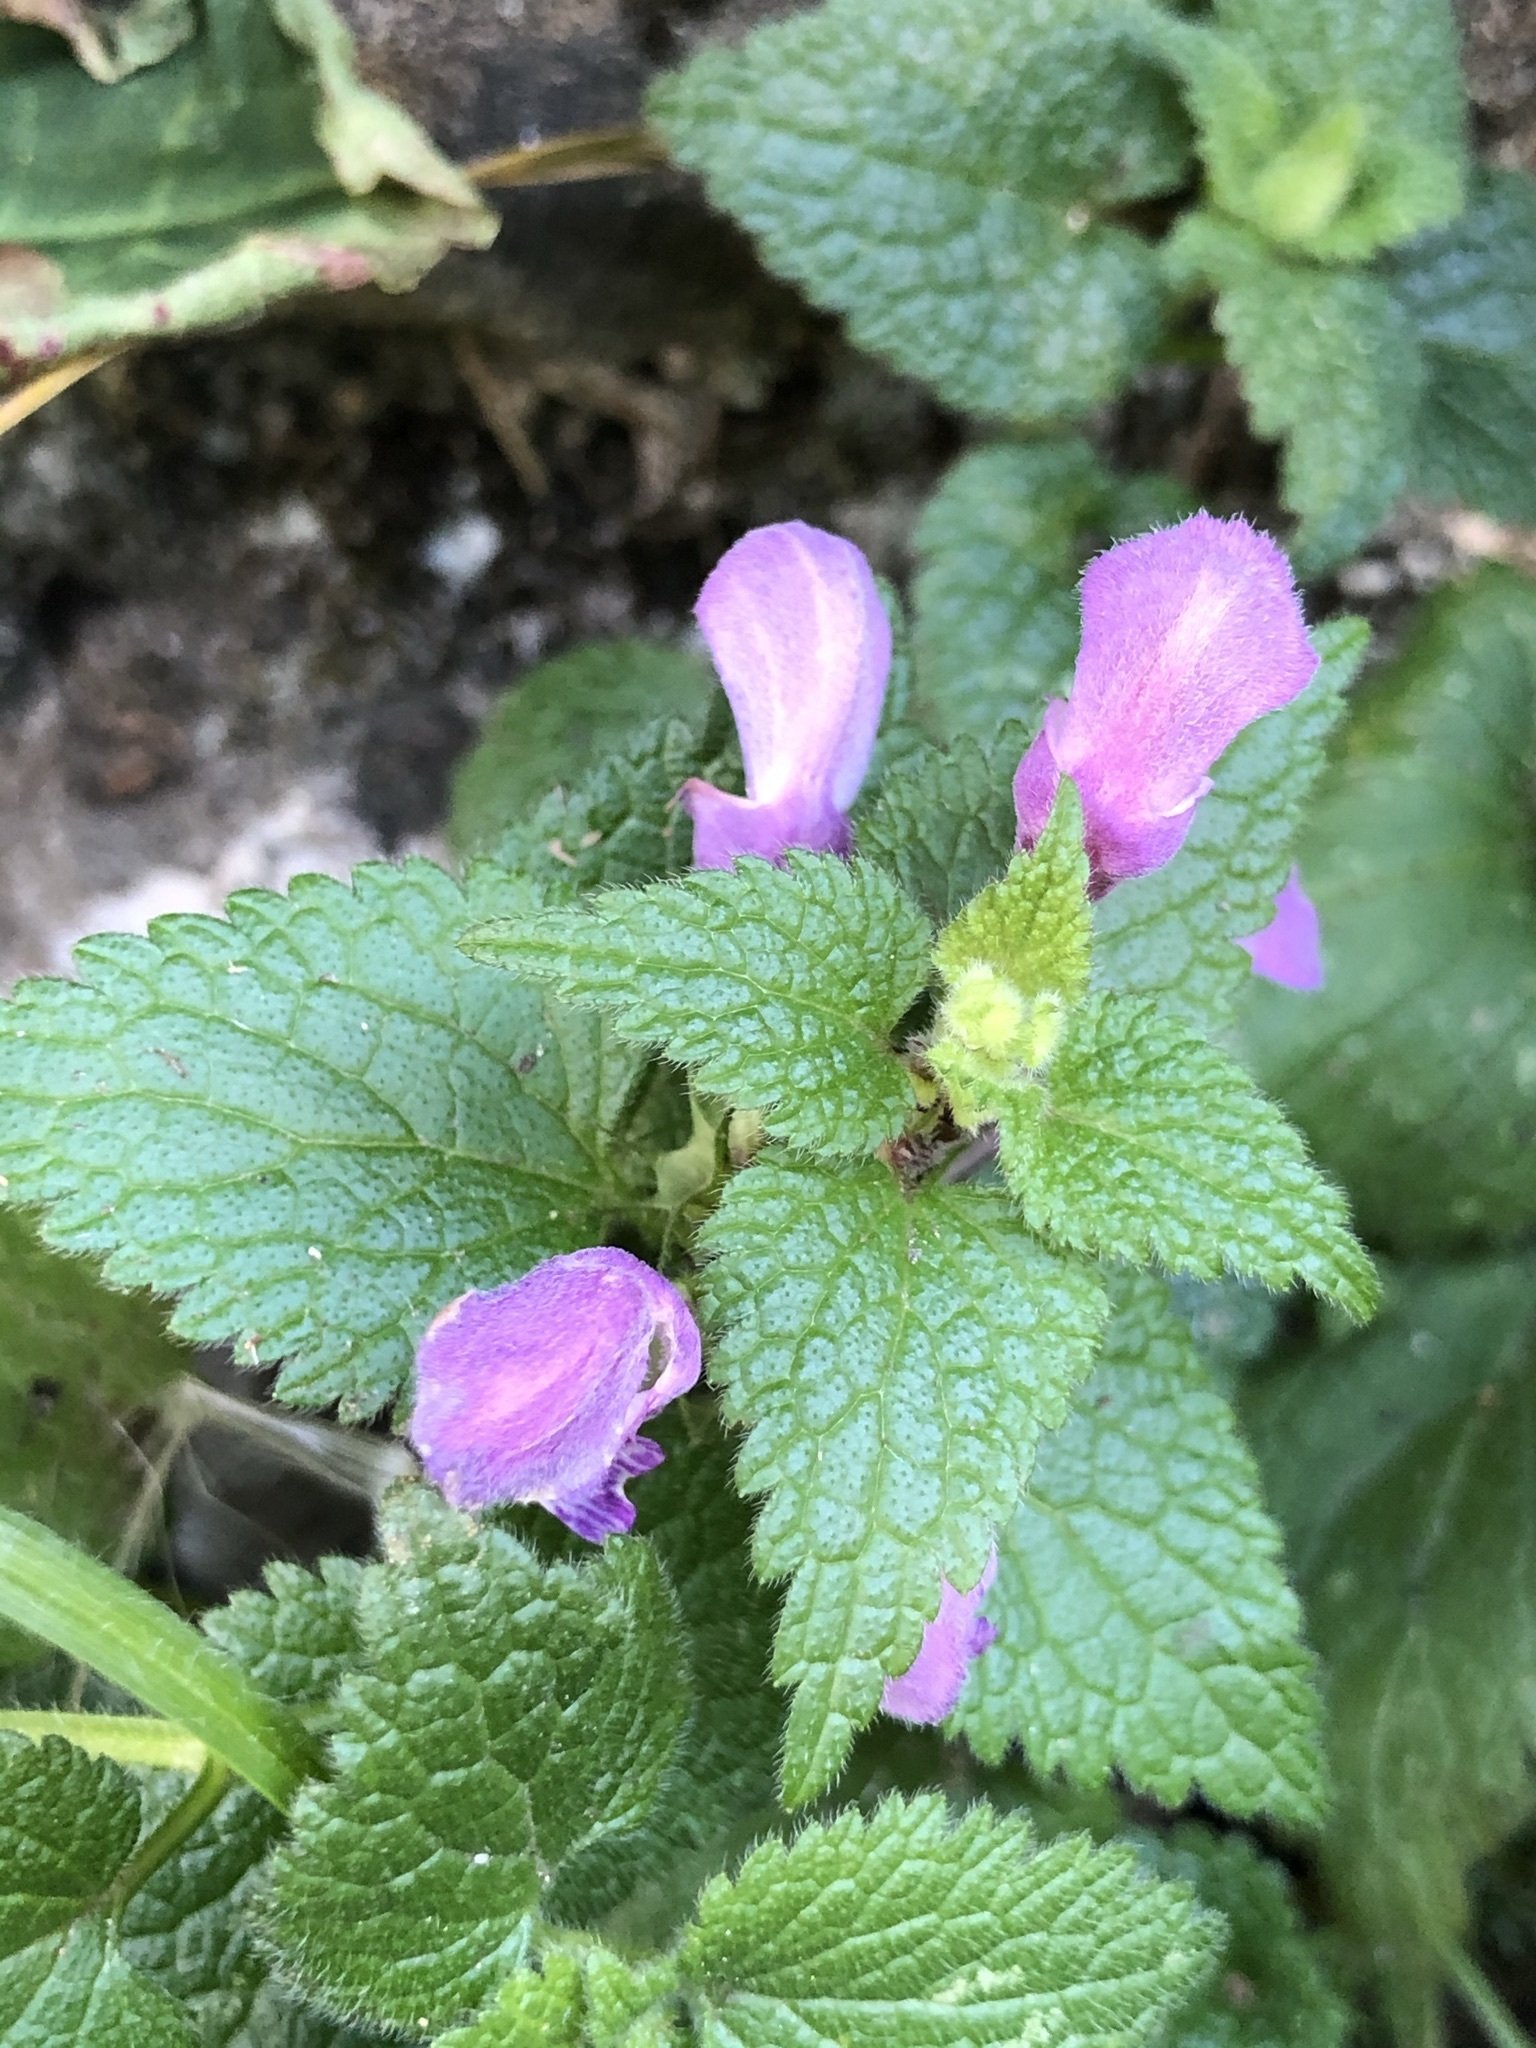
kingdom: Plantae
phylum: Tracheophyta
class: Magnoliopsida
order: Lamiales
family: Lamiaceae
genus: Lamium
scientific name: Lamium maculatum
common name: Spotted dead-nettle
